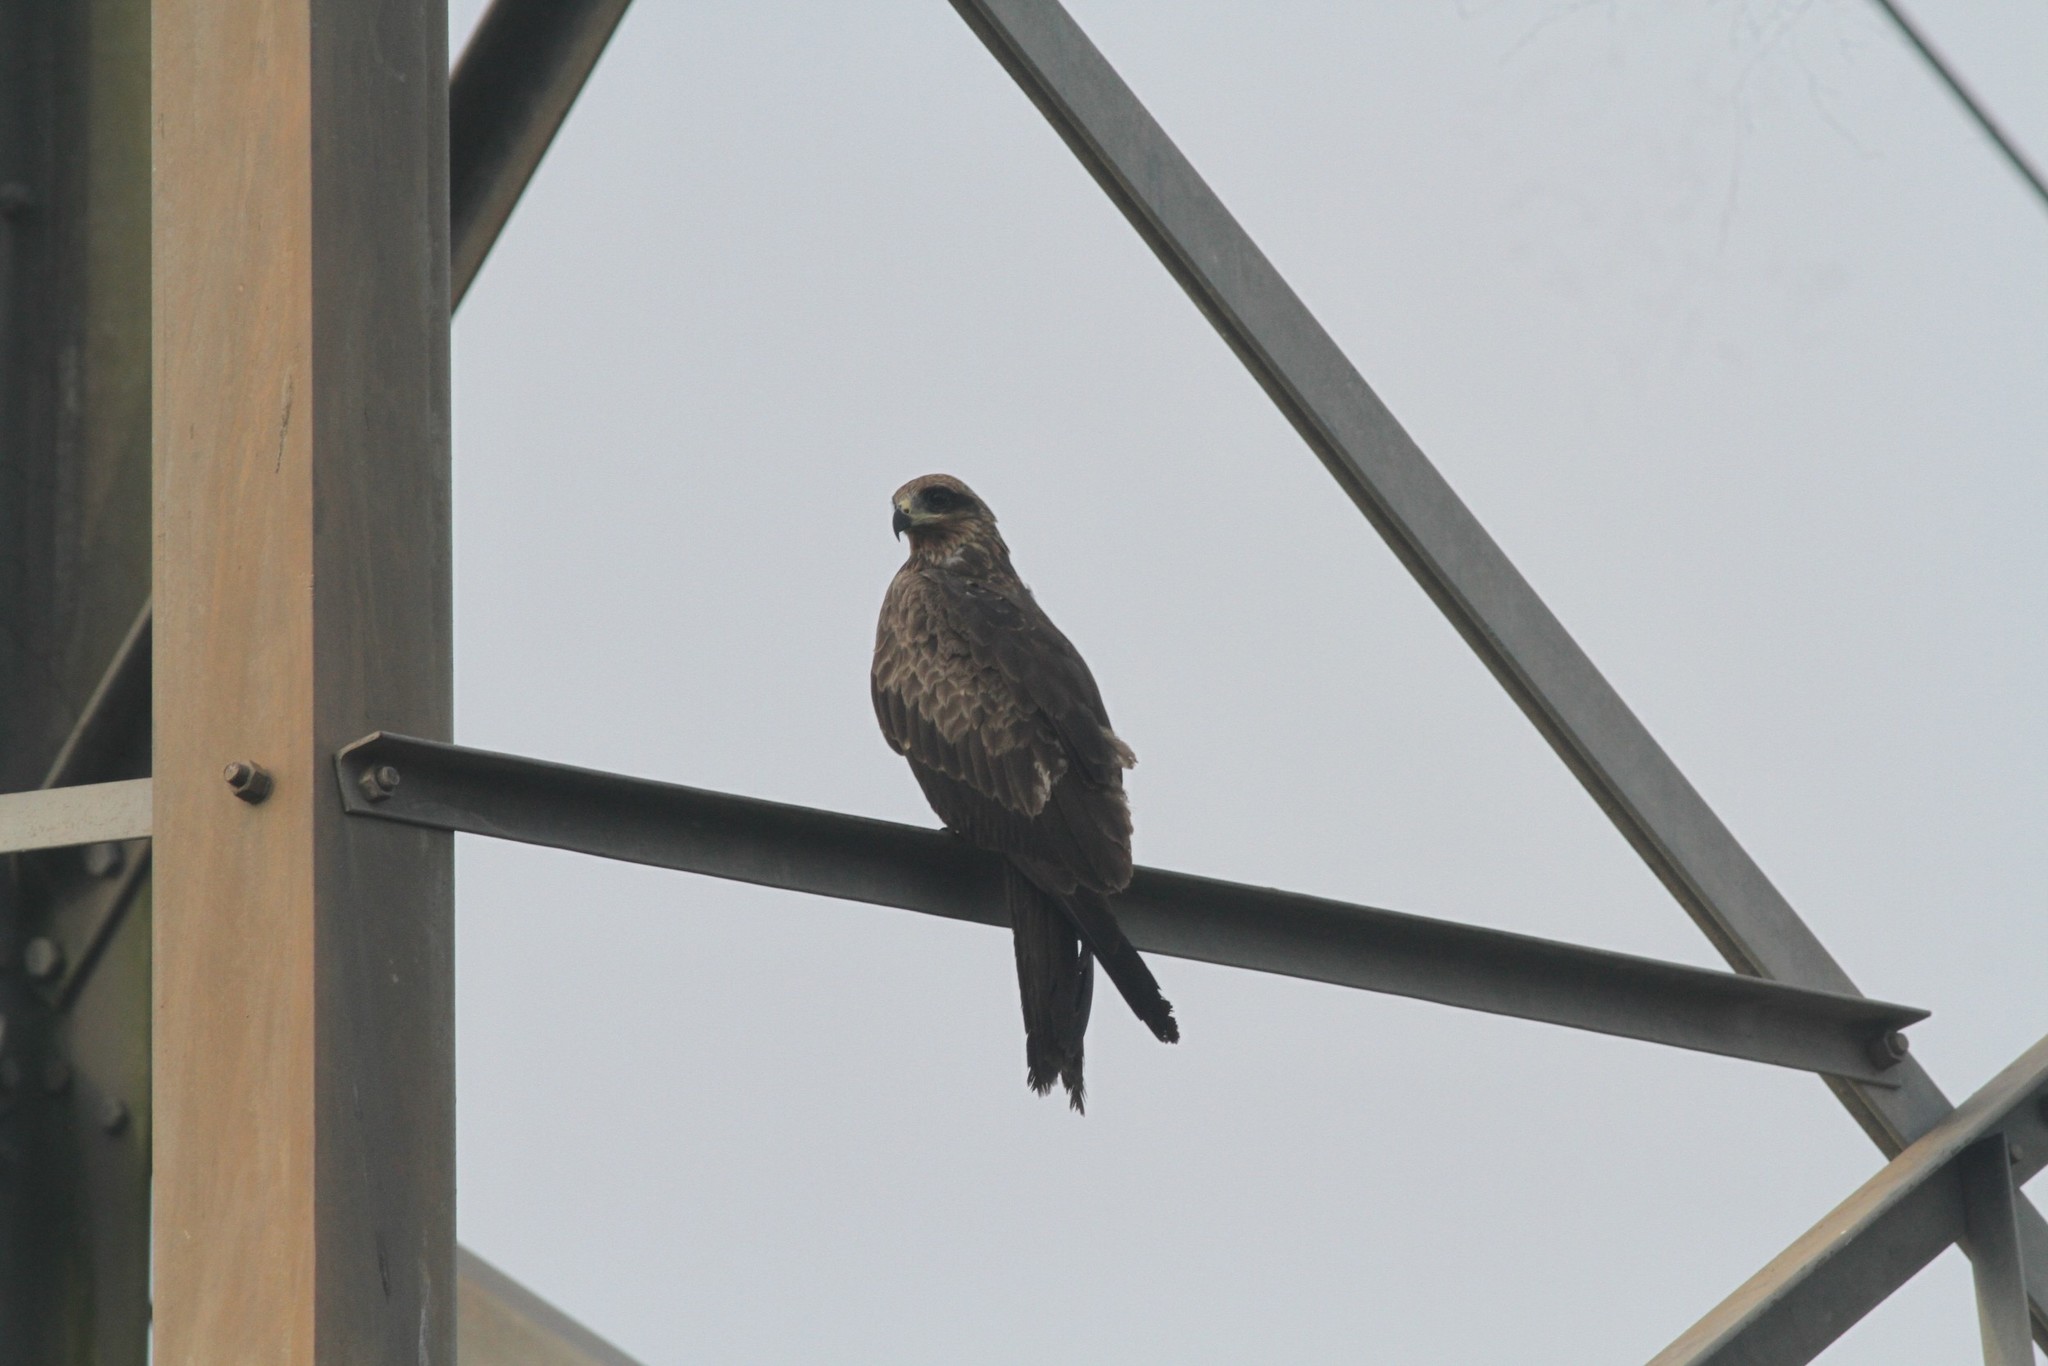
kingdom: Animalia
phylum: Chordata
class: Aves
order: Accipitriformes
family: Accipitridae
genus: Milvus
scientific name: Milvus migrans
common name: Black kite
